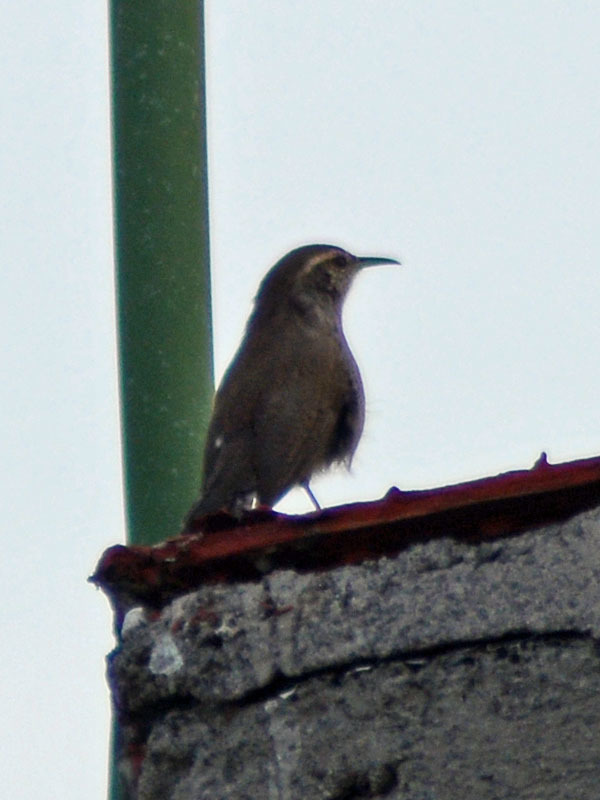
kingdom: Animalia
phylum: Chordata
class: Aves
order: Passeriformes
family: Troglodytidae
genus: Thryomanes
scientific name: Thryomanes bewickii
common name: Bewick's wren
